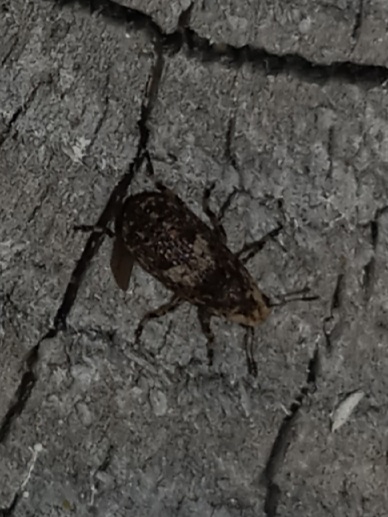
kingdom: Animalia
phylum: Arthropoda
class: Insecta
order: Coleoptera
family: Anthribidae
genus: Euparius
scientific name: Euparius marmoreus
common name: Marbled fungus weevil
